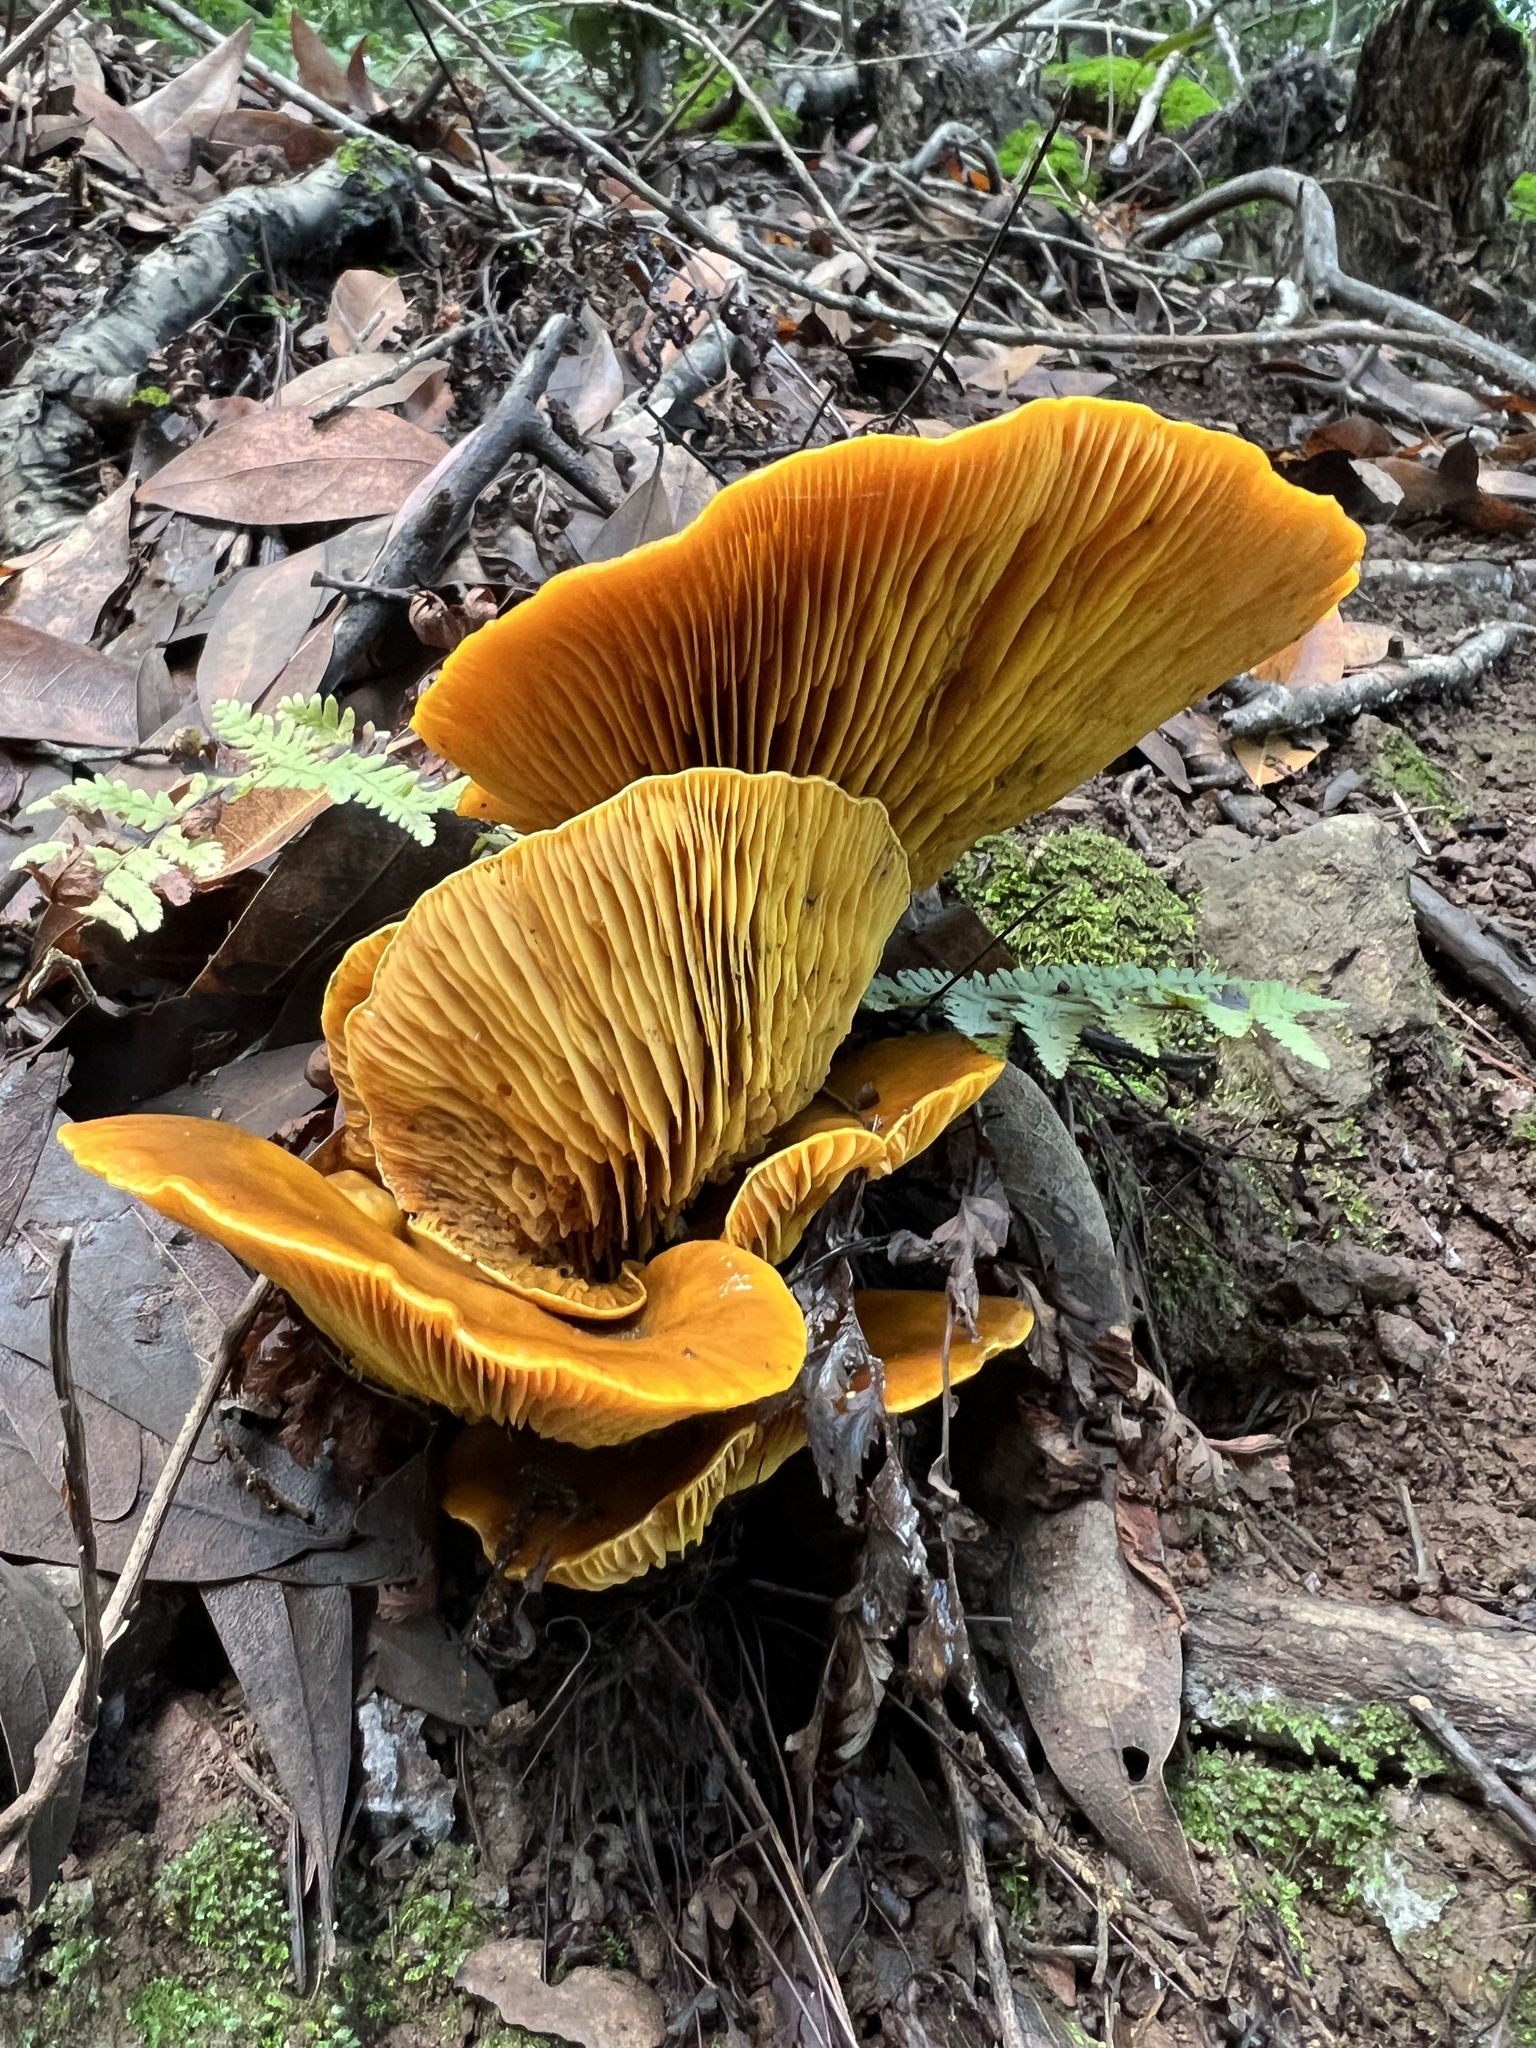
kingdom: Fungi
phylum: Basidiomycota
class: Agaricomycetes
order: Agaricales
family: Omphalotaceae
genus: Omphalotus
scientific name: Omphalotus olivascens
